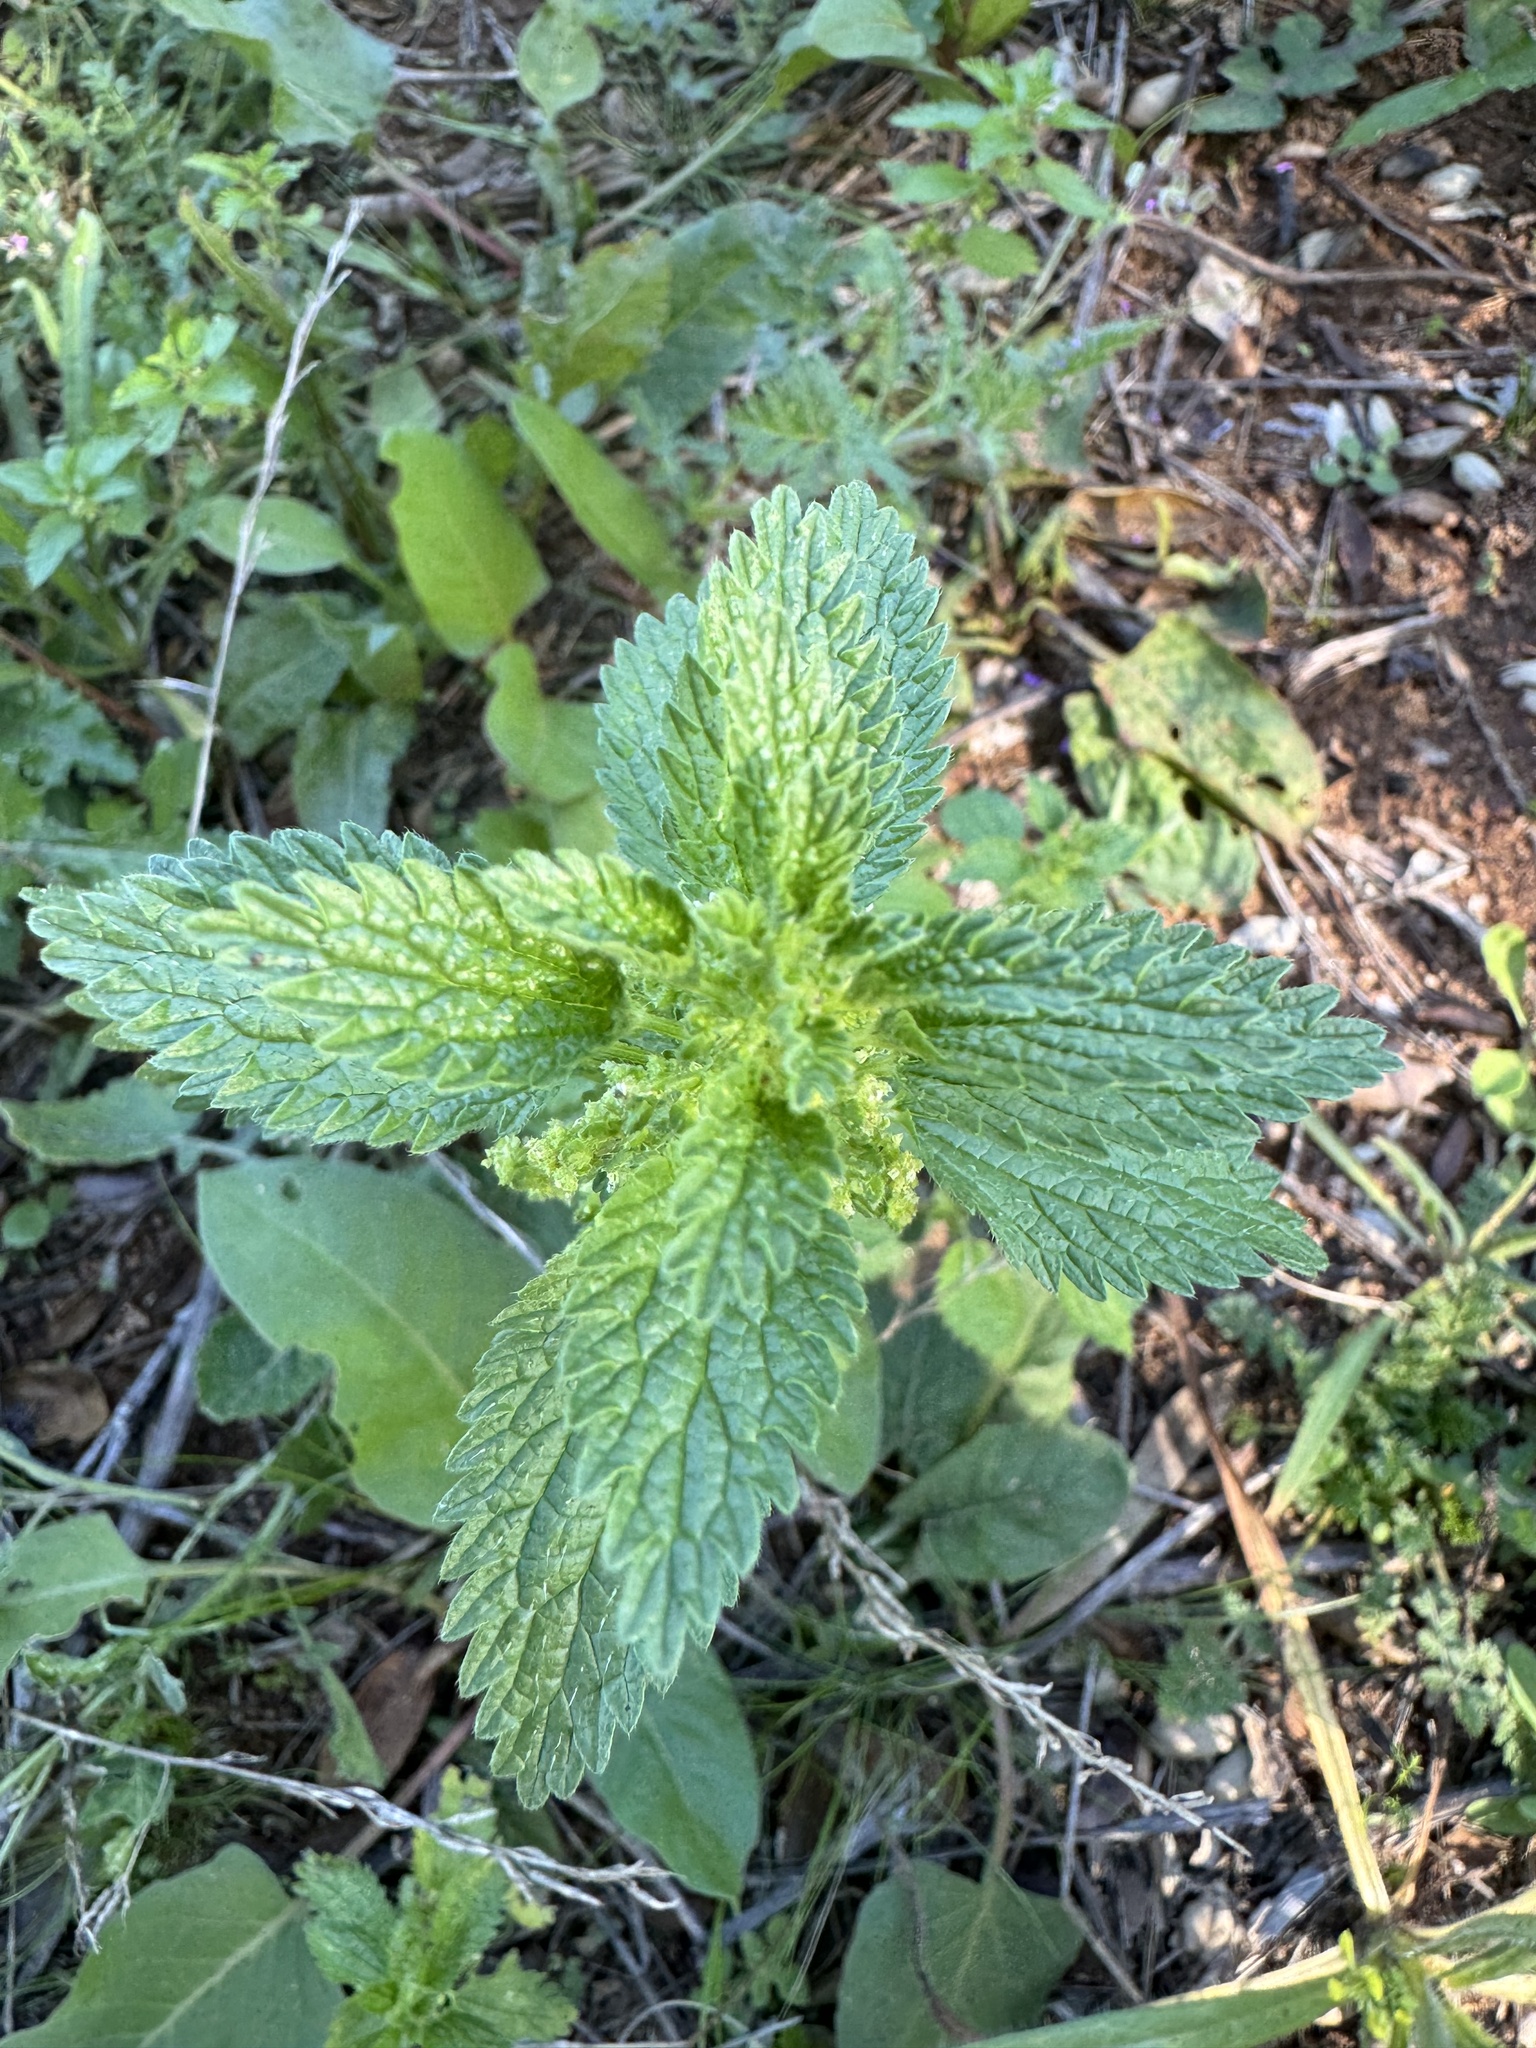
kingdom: Plantae
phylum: Tracheophyta
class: Magnoliopsida
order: Rosales
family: Urticaceae
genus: Urtica
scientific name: Urtica urens
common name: Dwarf nettle
